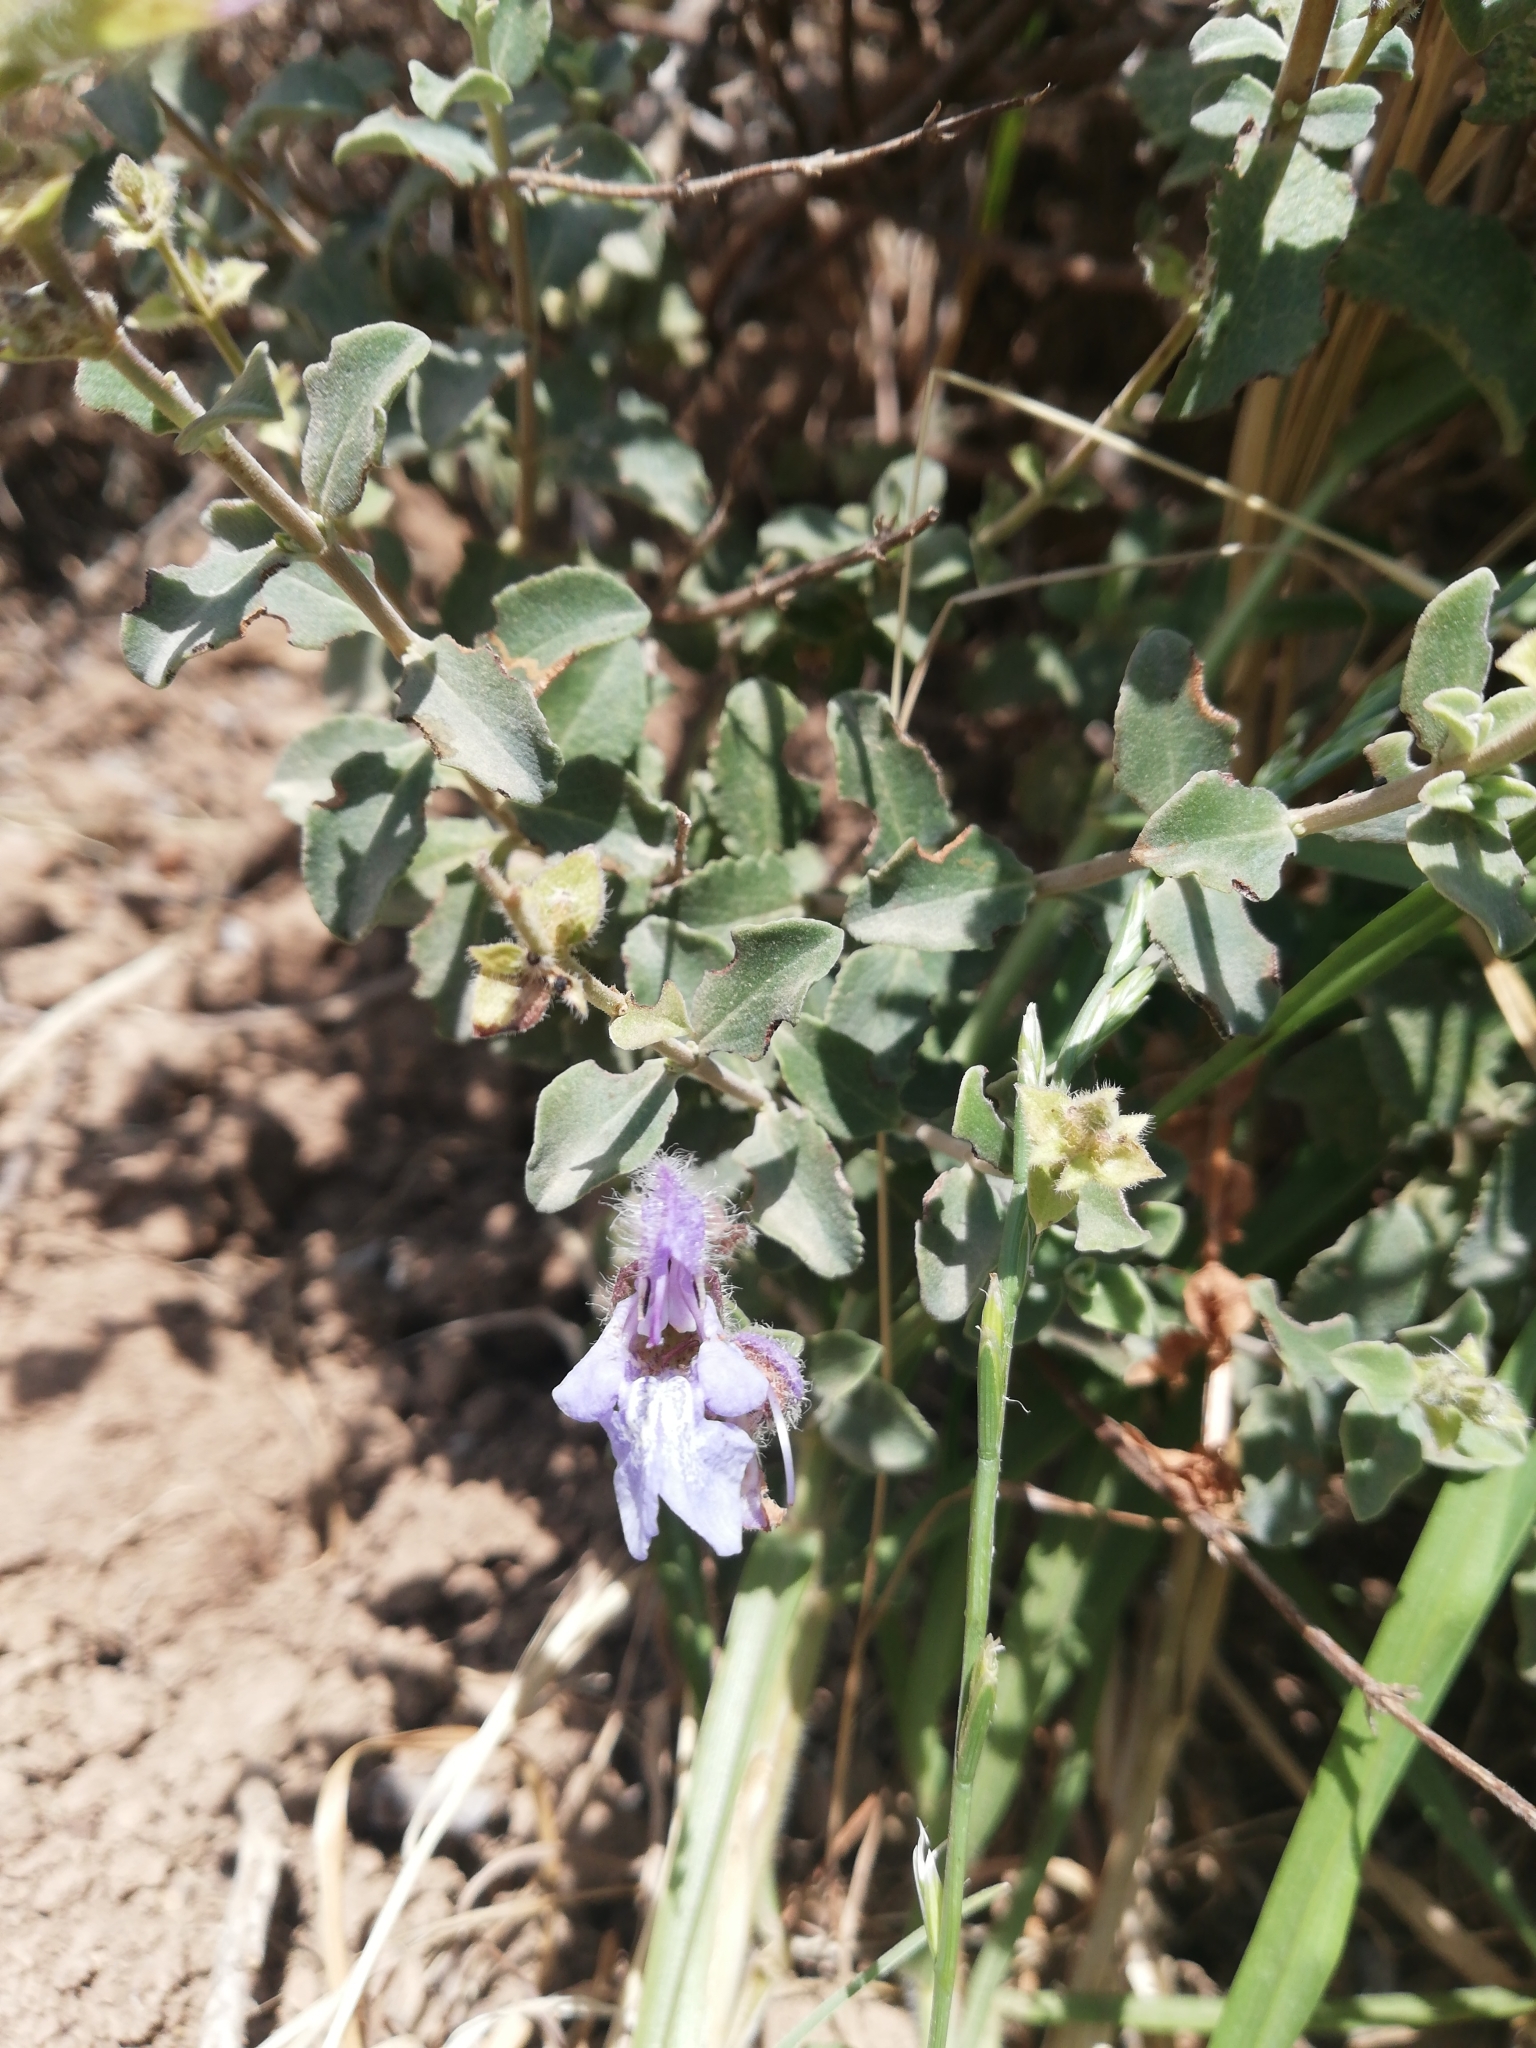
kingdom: Plantae
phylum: Tracheophyta
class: Magnoliopsida
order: Lamiales
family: Lamiaceae
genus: Salvia
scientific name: Salvia africana
